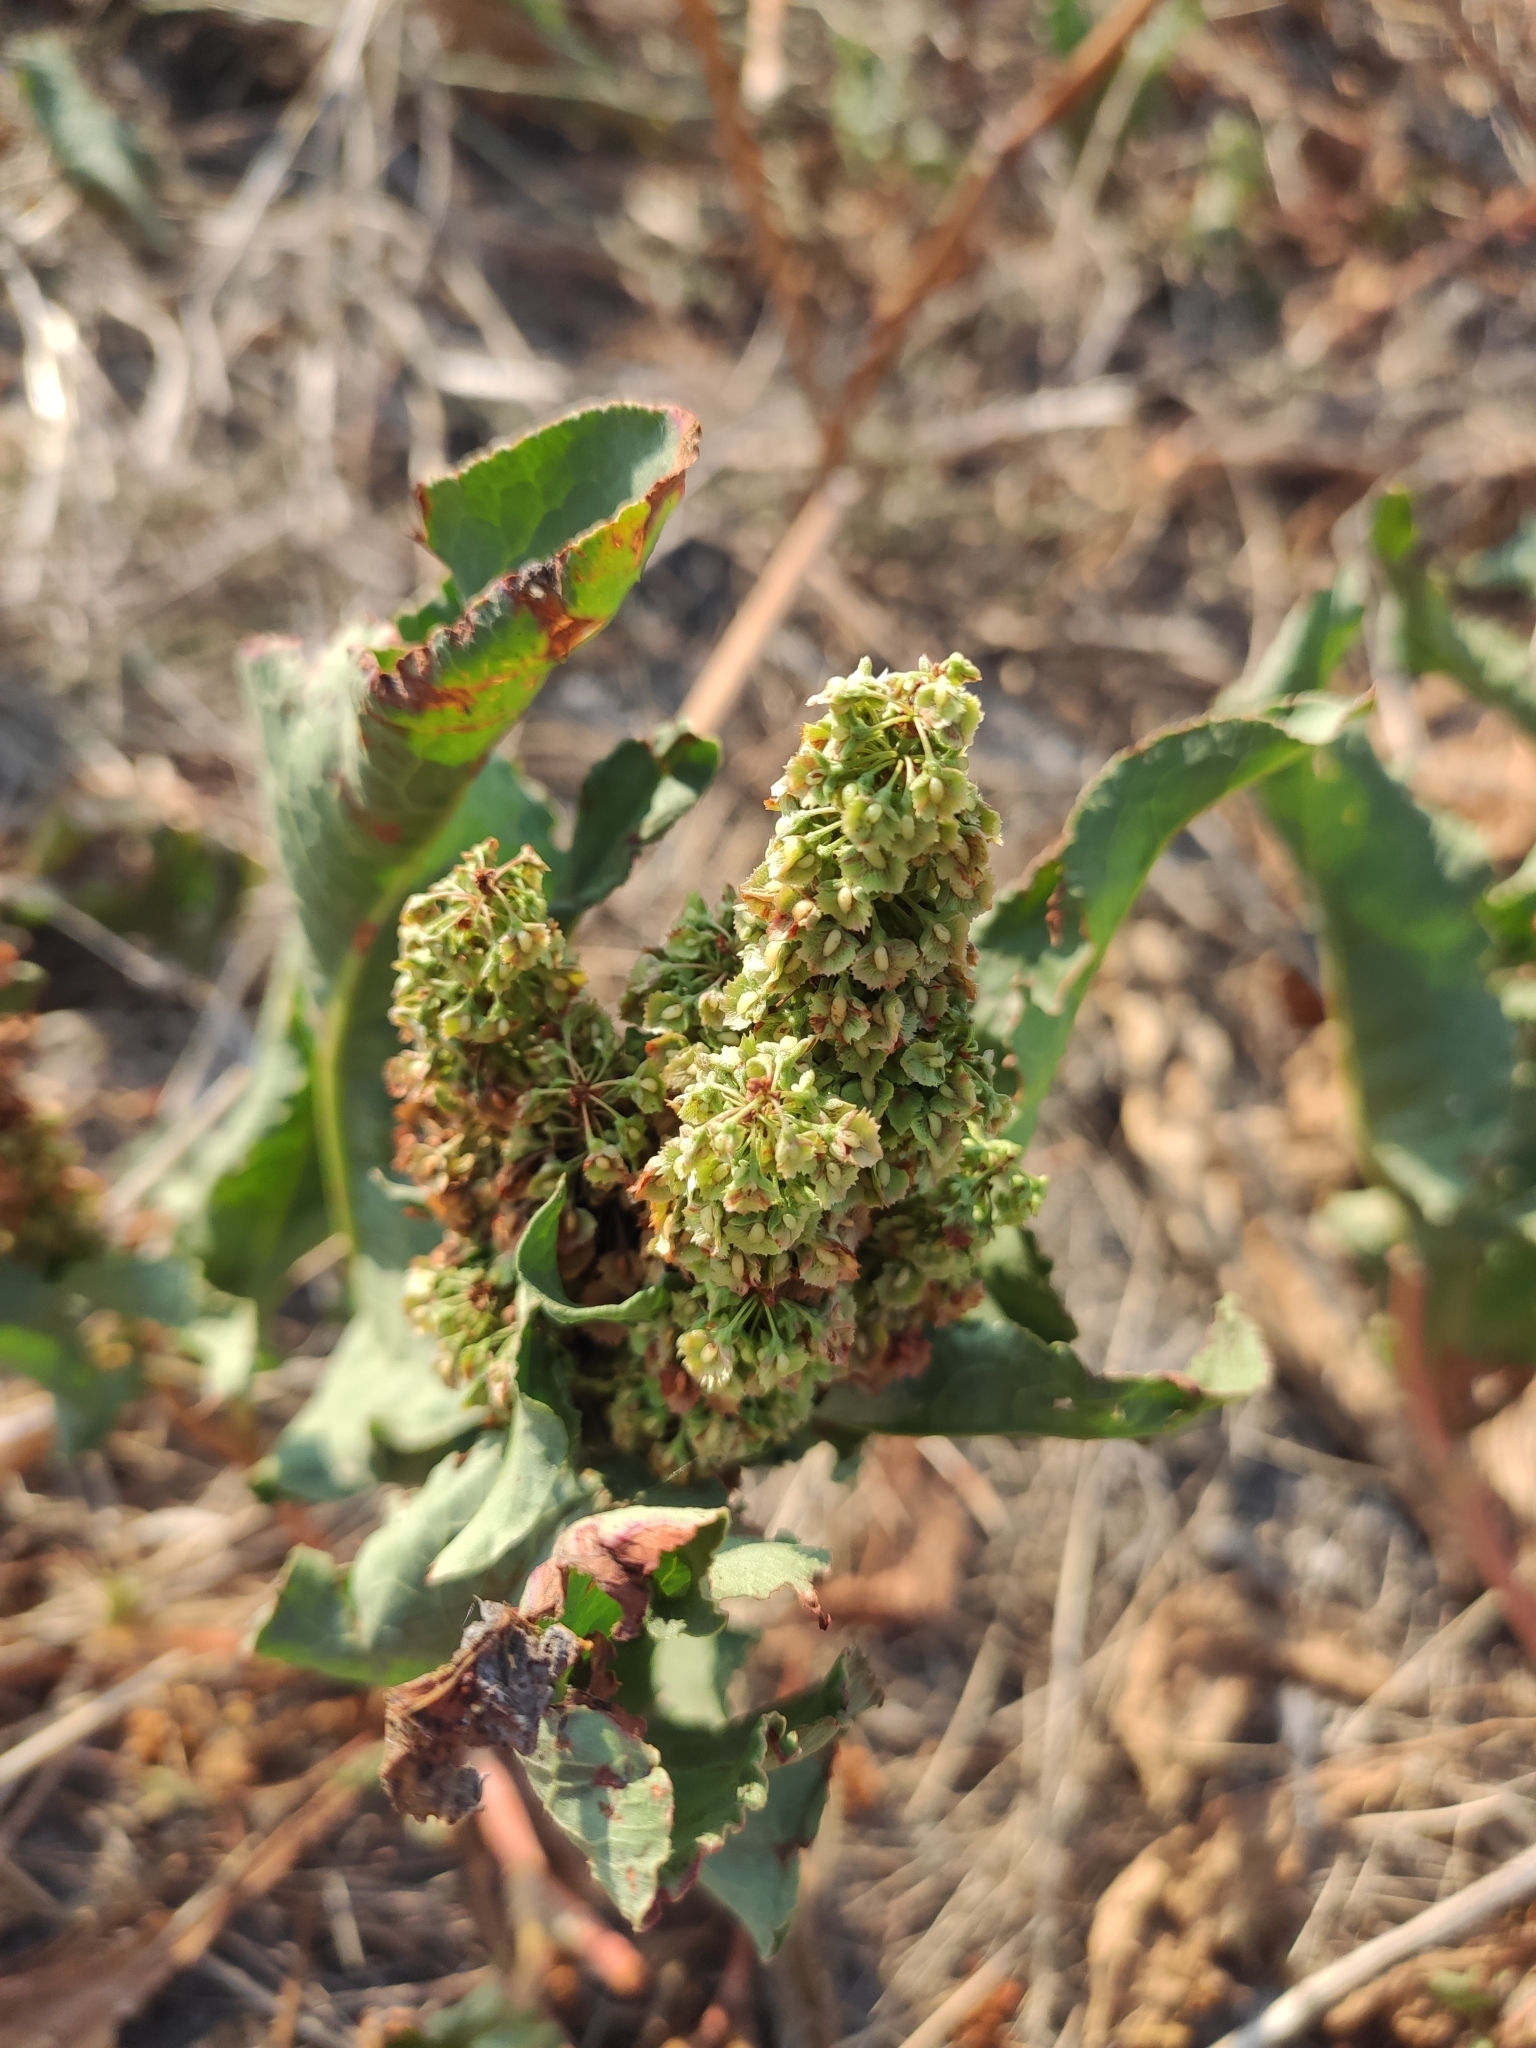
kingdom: Plantae
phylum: Tracheophyta
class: Magnoliopsida
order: Caryophyllales
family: Polygonaceae
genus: Rumex
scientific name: Rumex patientia
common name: Patience dock
